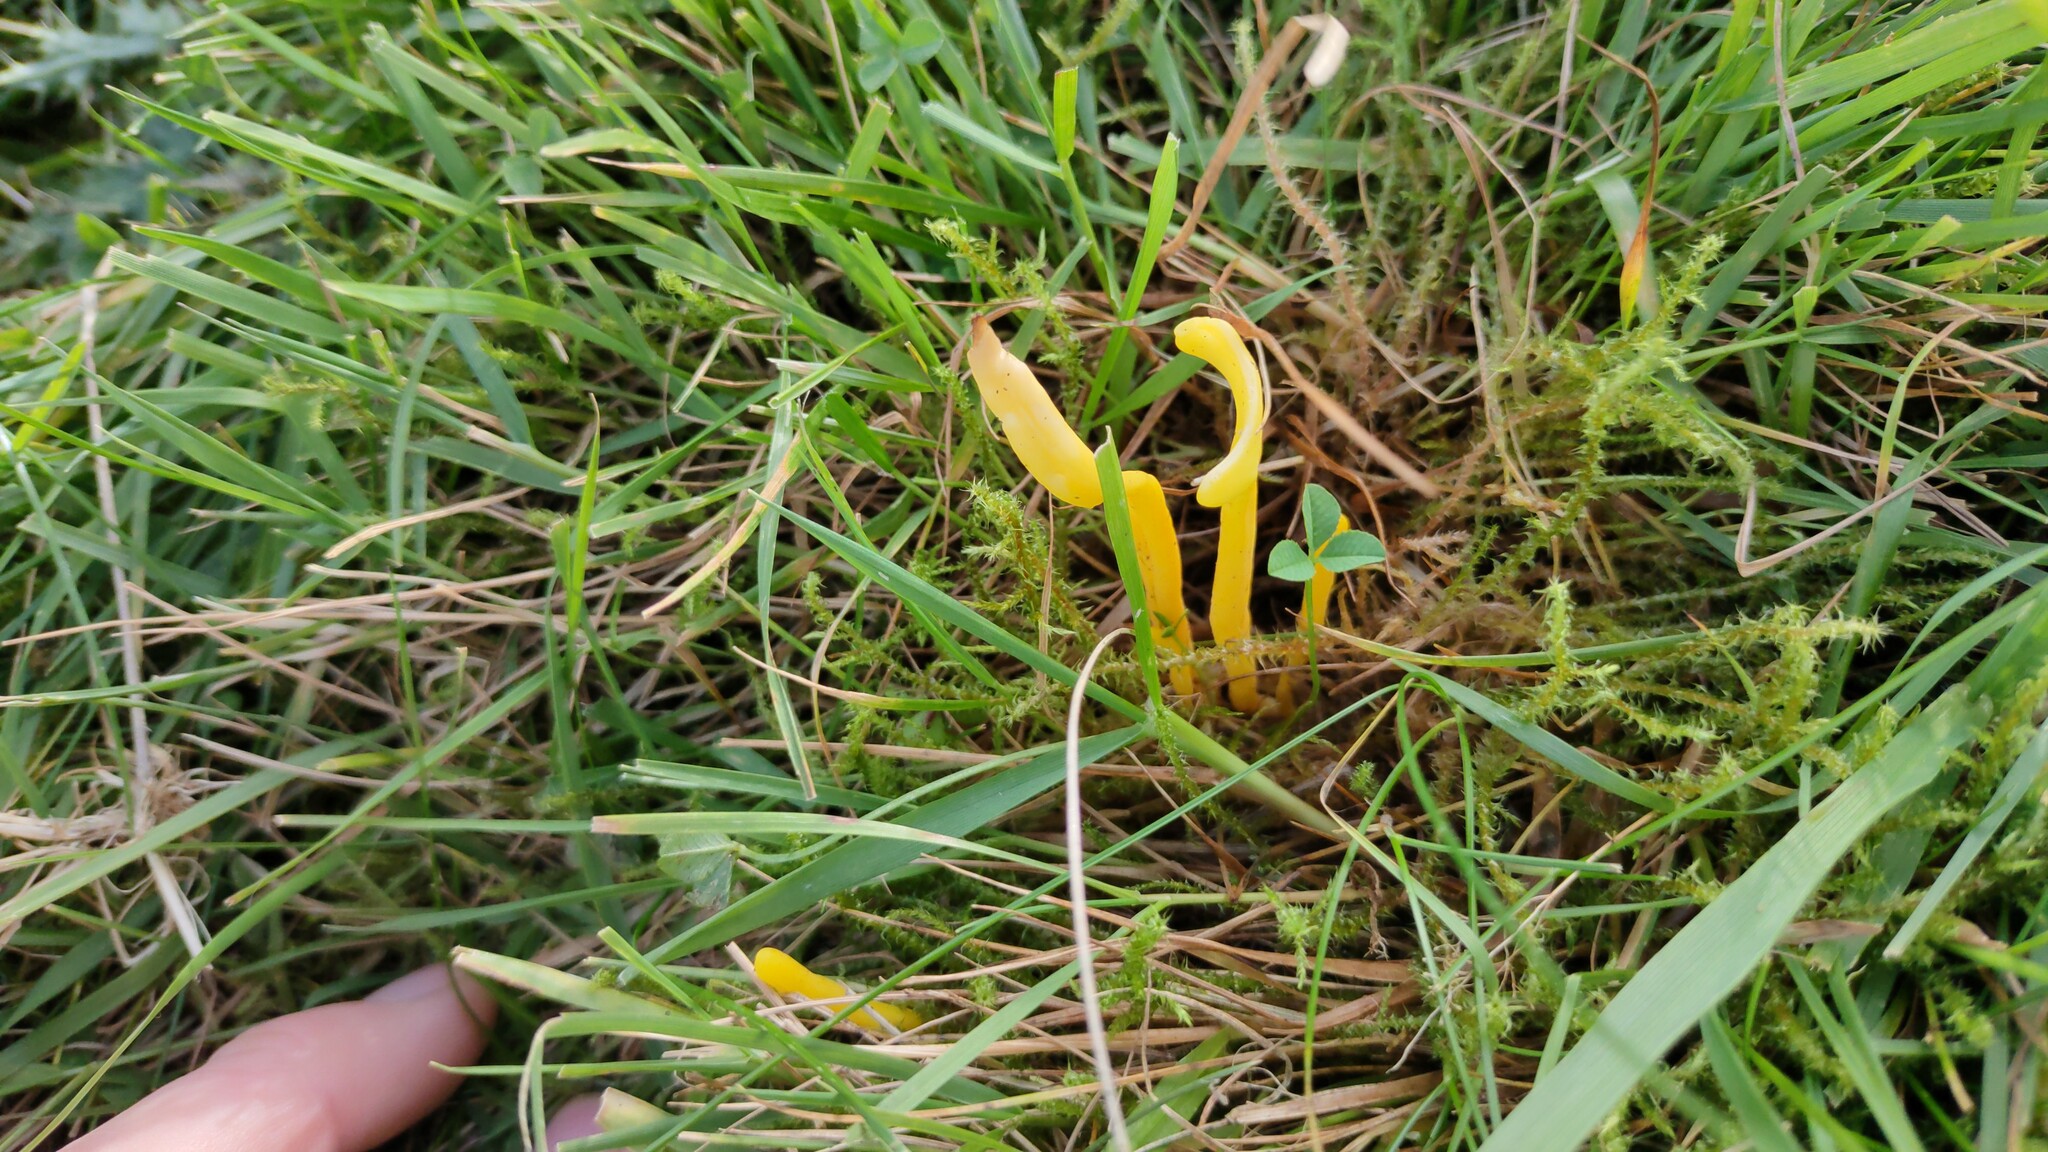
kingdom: Fungi
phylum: Basidiomycota
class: Agaricomycetes
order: Agaricales
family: Clavariaceae
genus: Clavulinopsis
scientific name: Clavulinopsis helvola
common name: Yellow club
